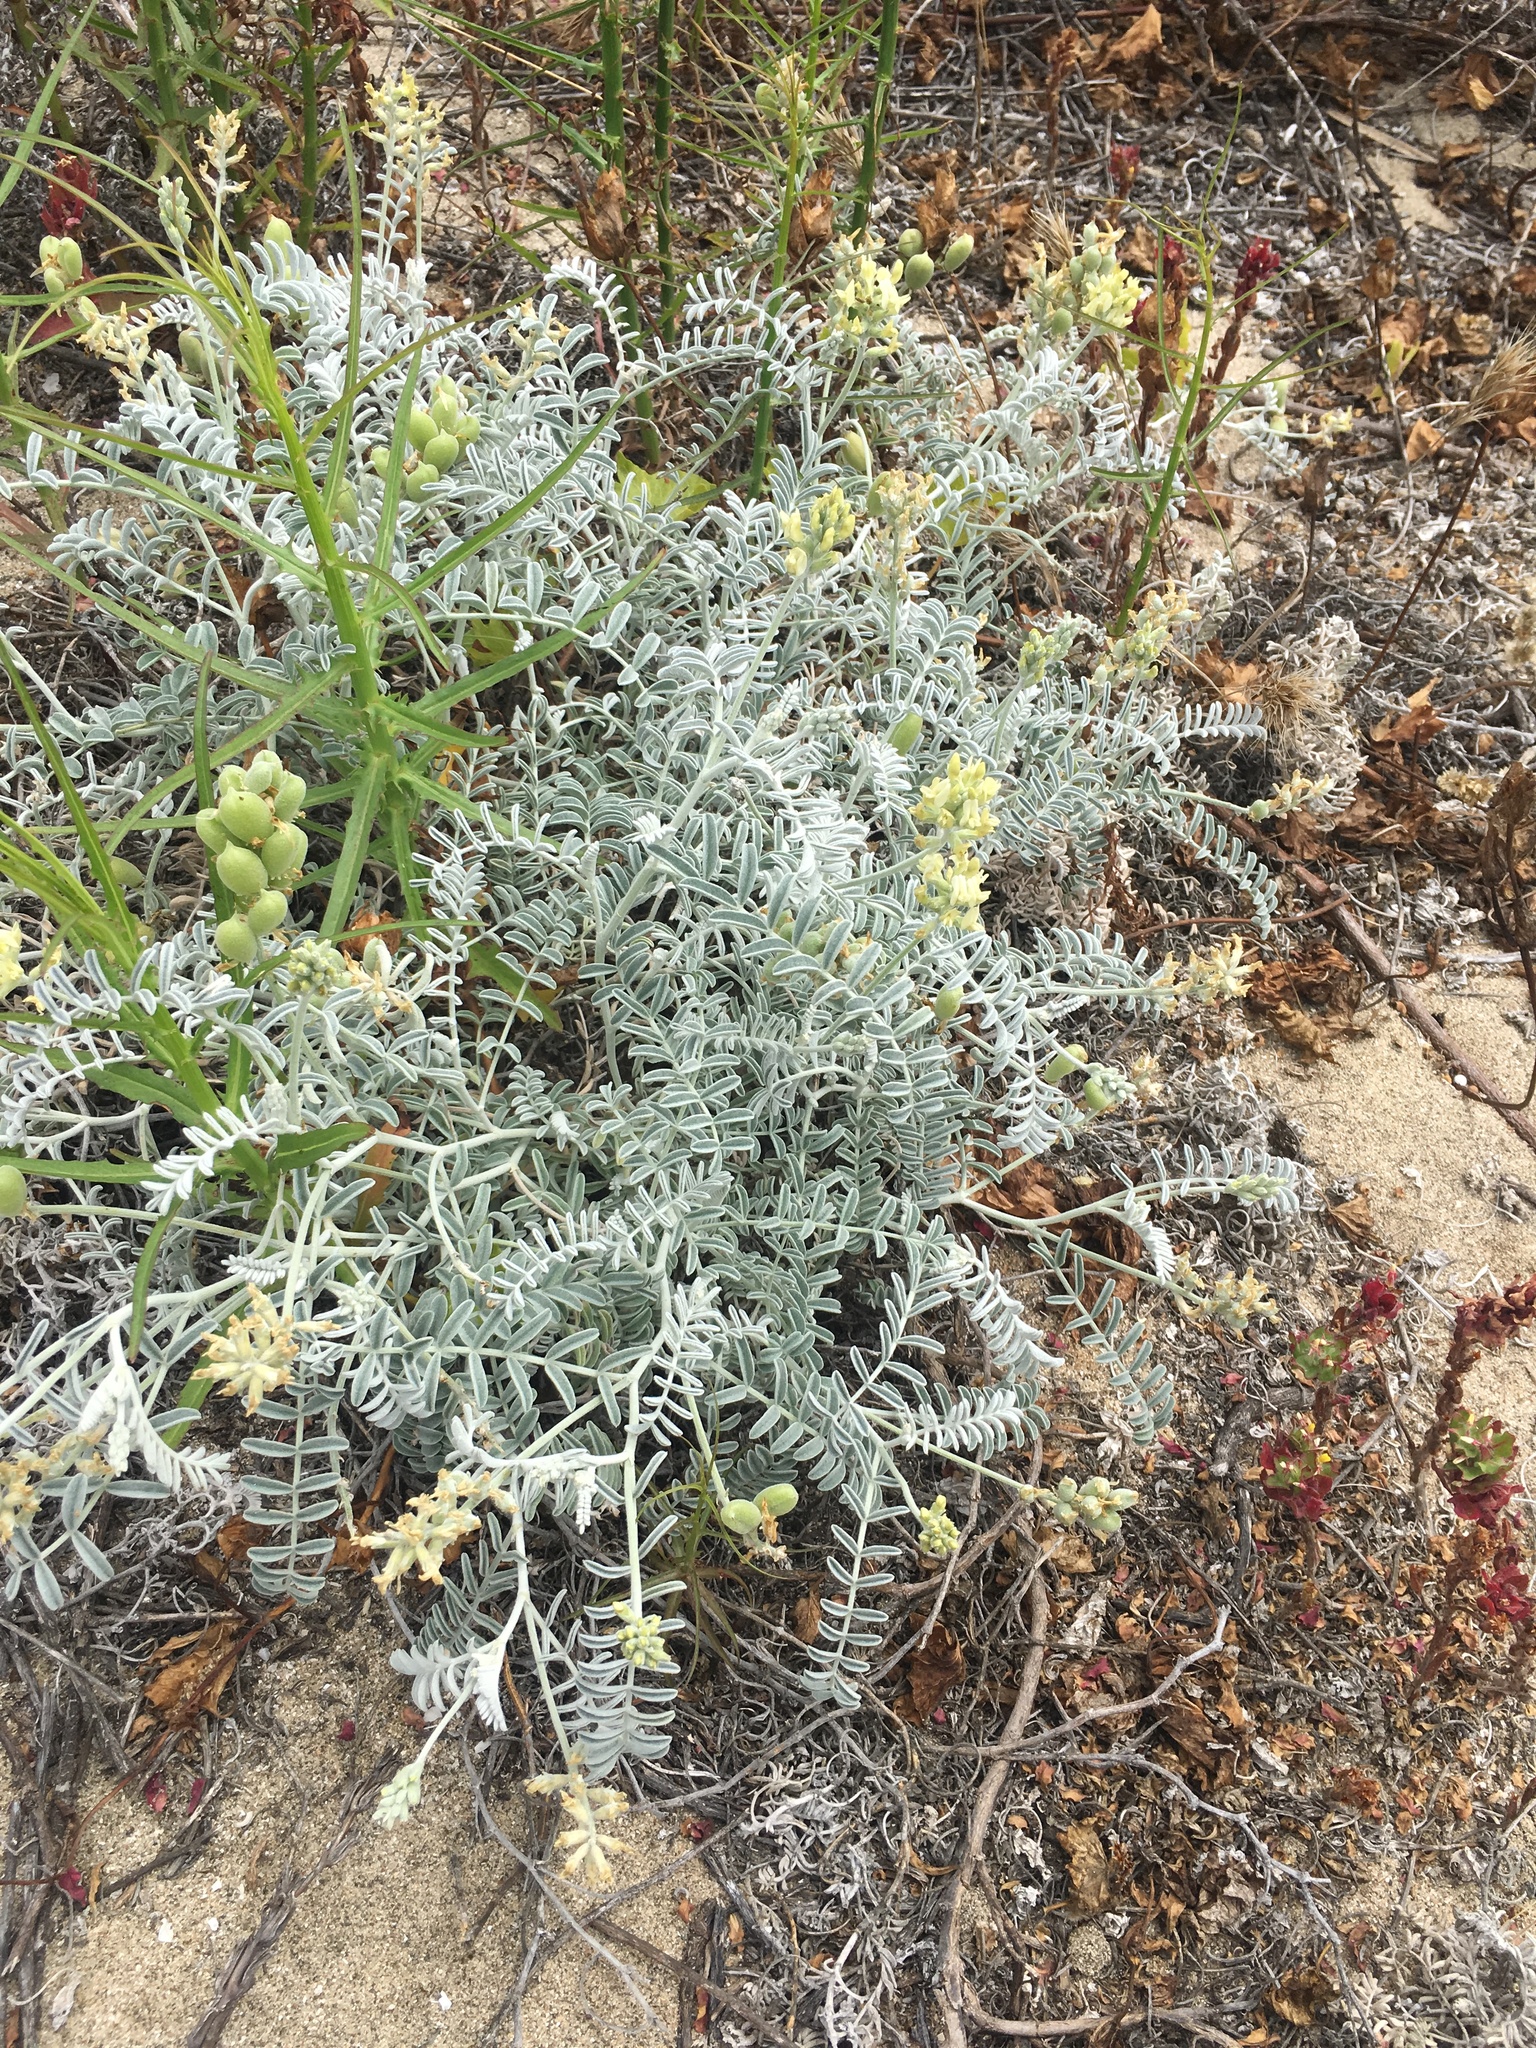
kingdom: Plantae
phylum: Tracheophyta
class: Magnoliopsida
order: Fabales
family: Fabaceae
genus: Astragalus
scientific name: Astragalus miguelensis
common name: San miguel milk-vetch
